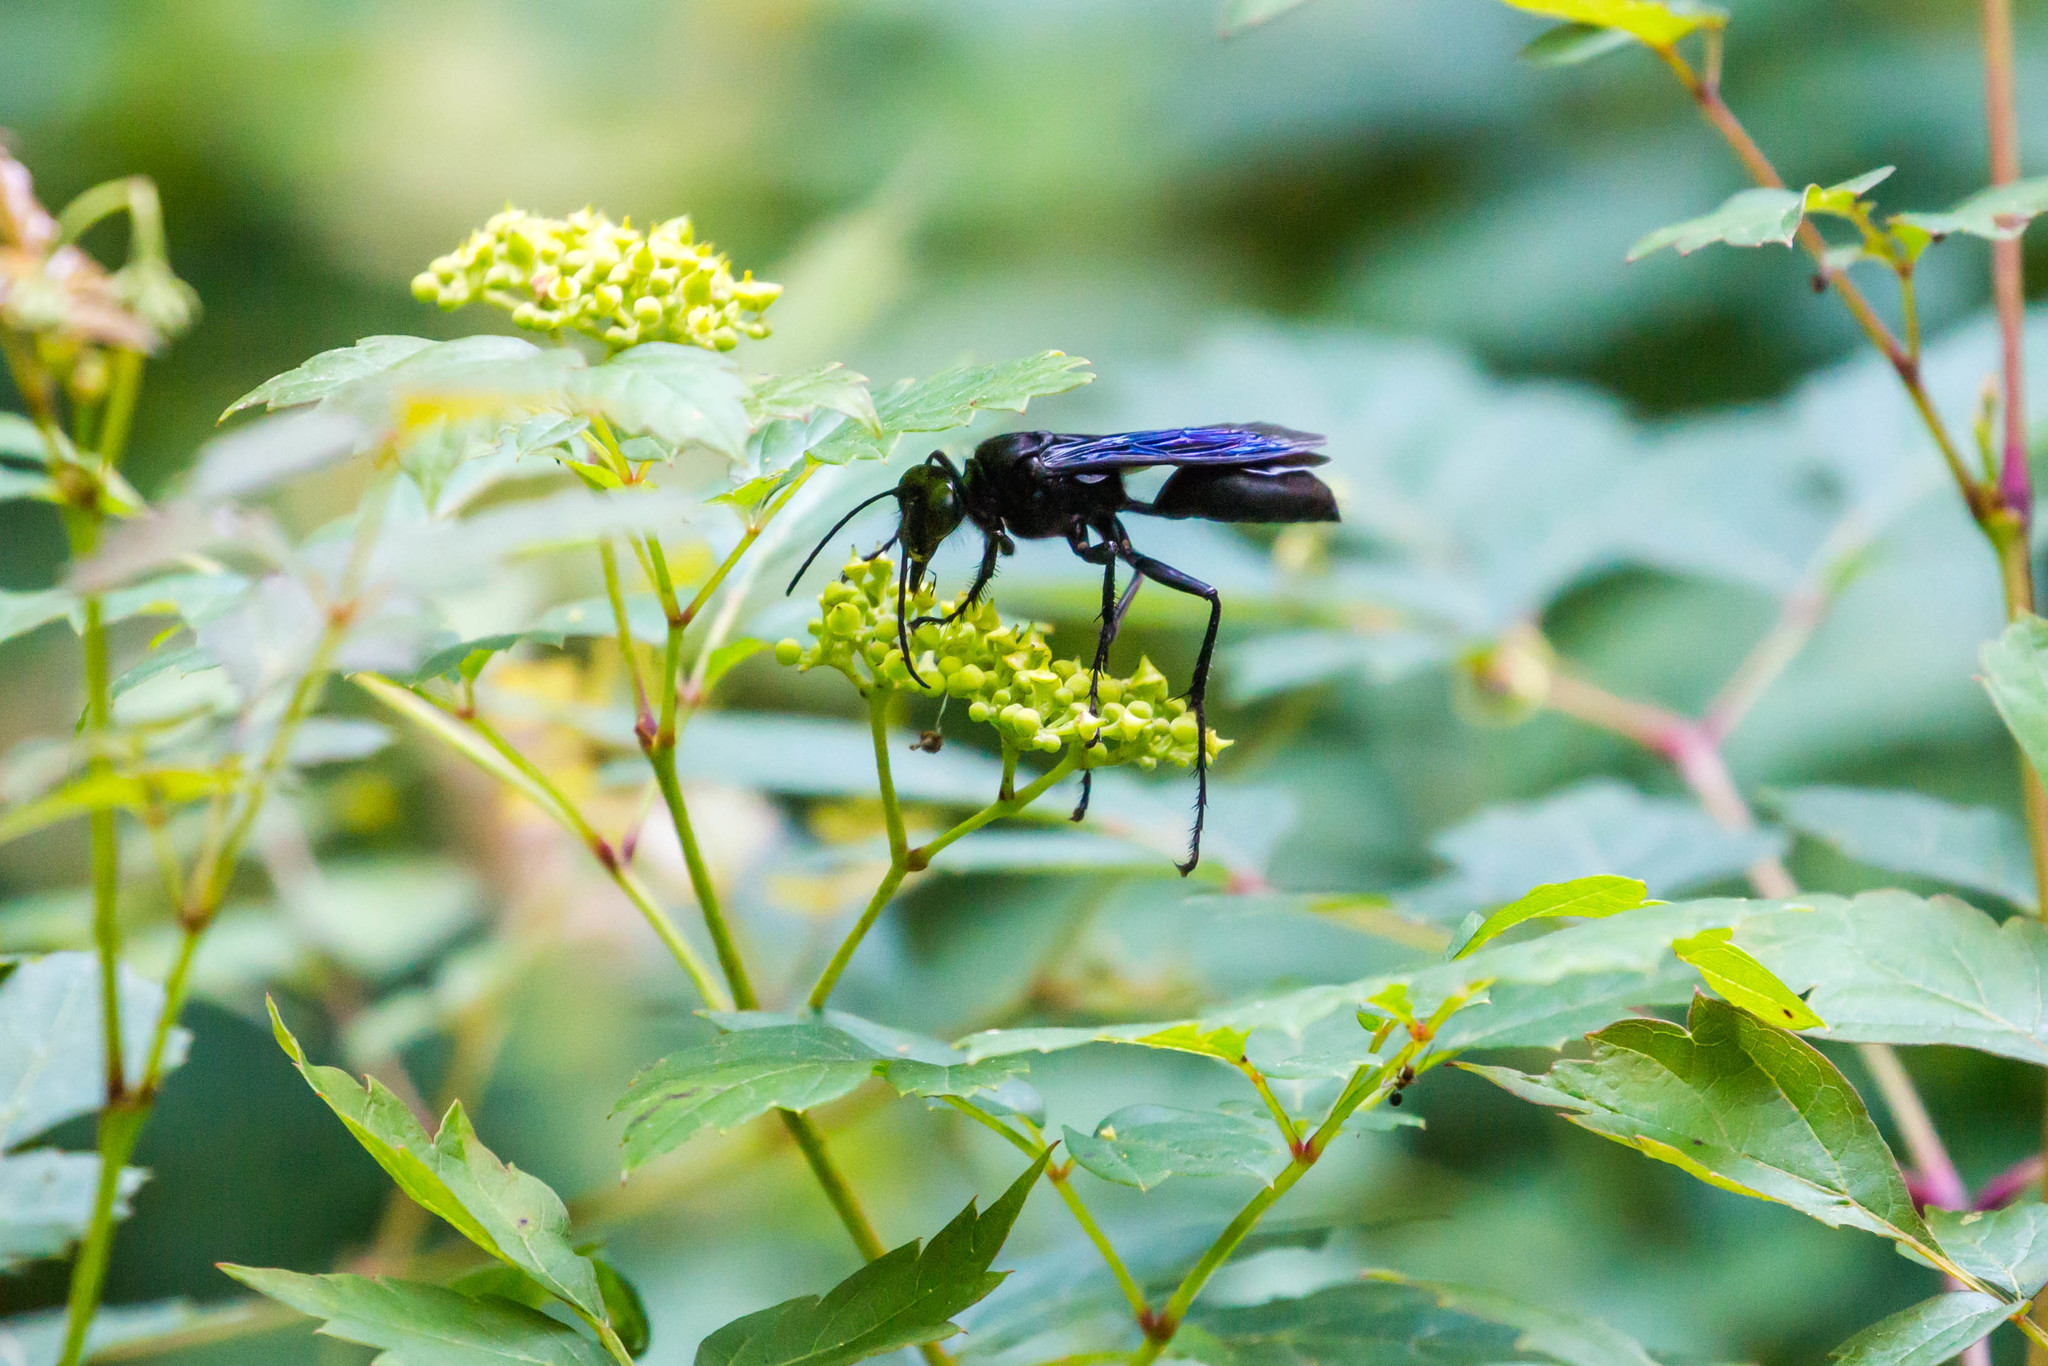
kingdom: Animalia
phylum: Arthropoda
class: Insecta
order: Hymenoptera
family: Sphecidae
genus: Sphex
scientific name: Sphex pensylvanicus
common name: Great black digger wasp
